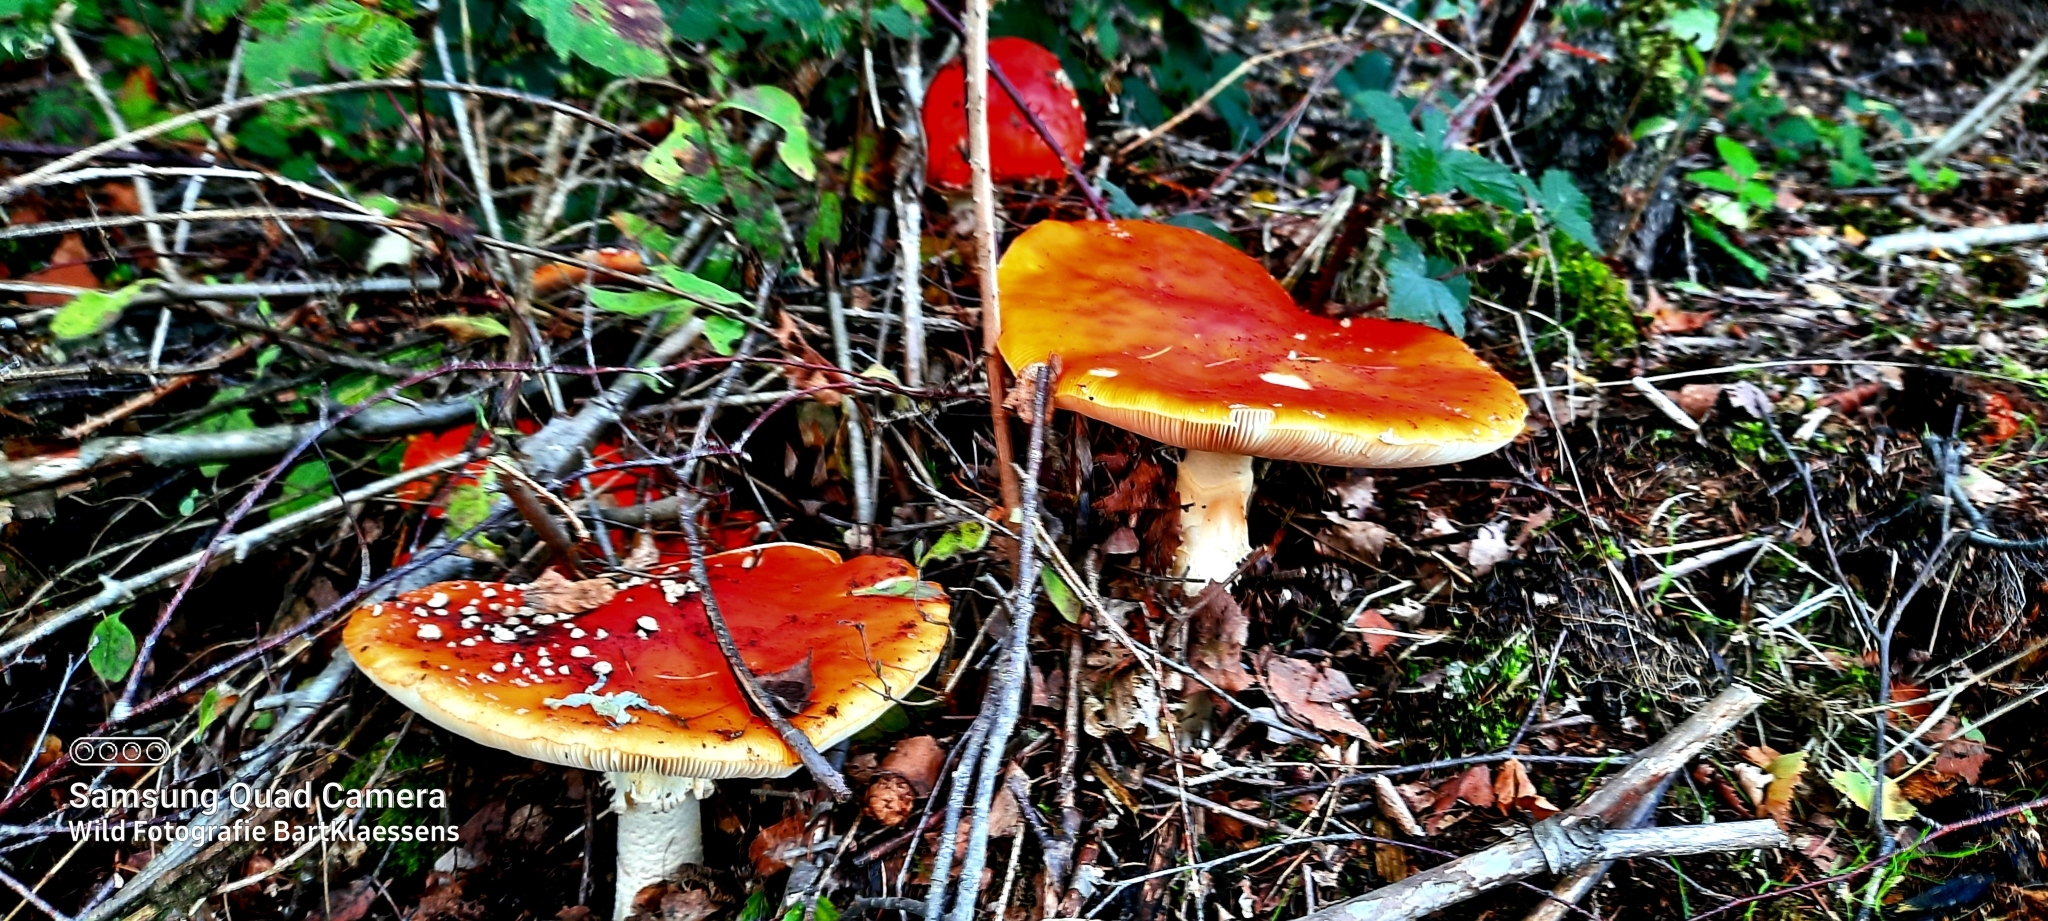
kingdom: Fungi
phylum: Basidiomycota
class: Agaricomycetes
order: Agaricales
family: Amanitaceae
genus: Amanita
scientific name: Amanita muscaria
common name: Fly agaric
